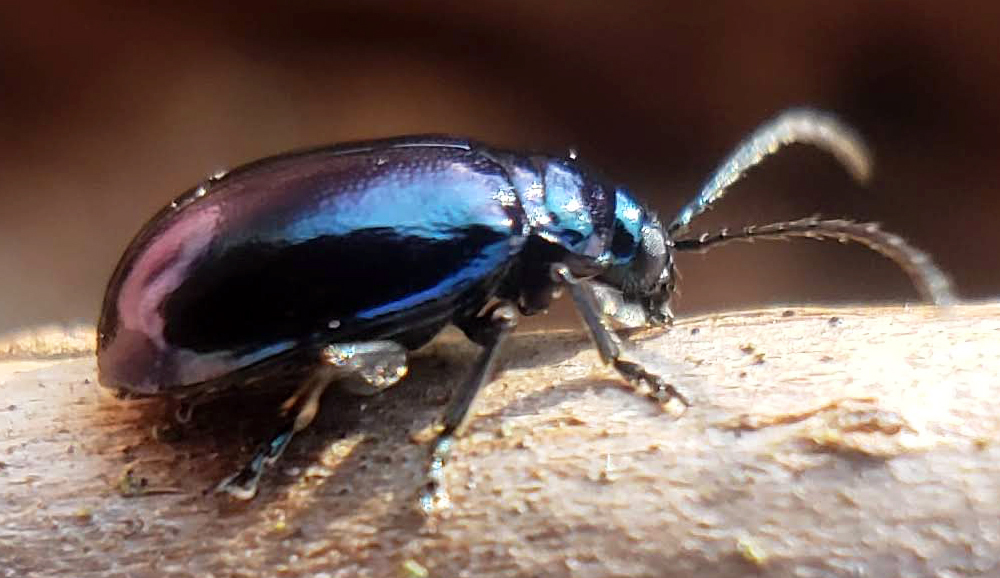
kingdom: Animalia
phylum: Arthropoda
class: Insecta
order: Coleoptera
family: Chrysomelidae
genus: Altica
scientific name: Altica chalybea
